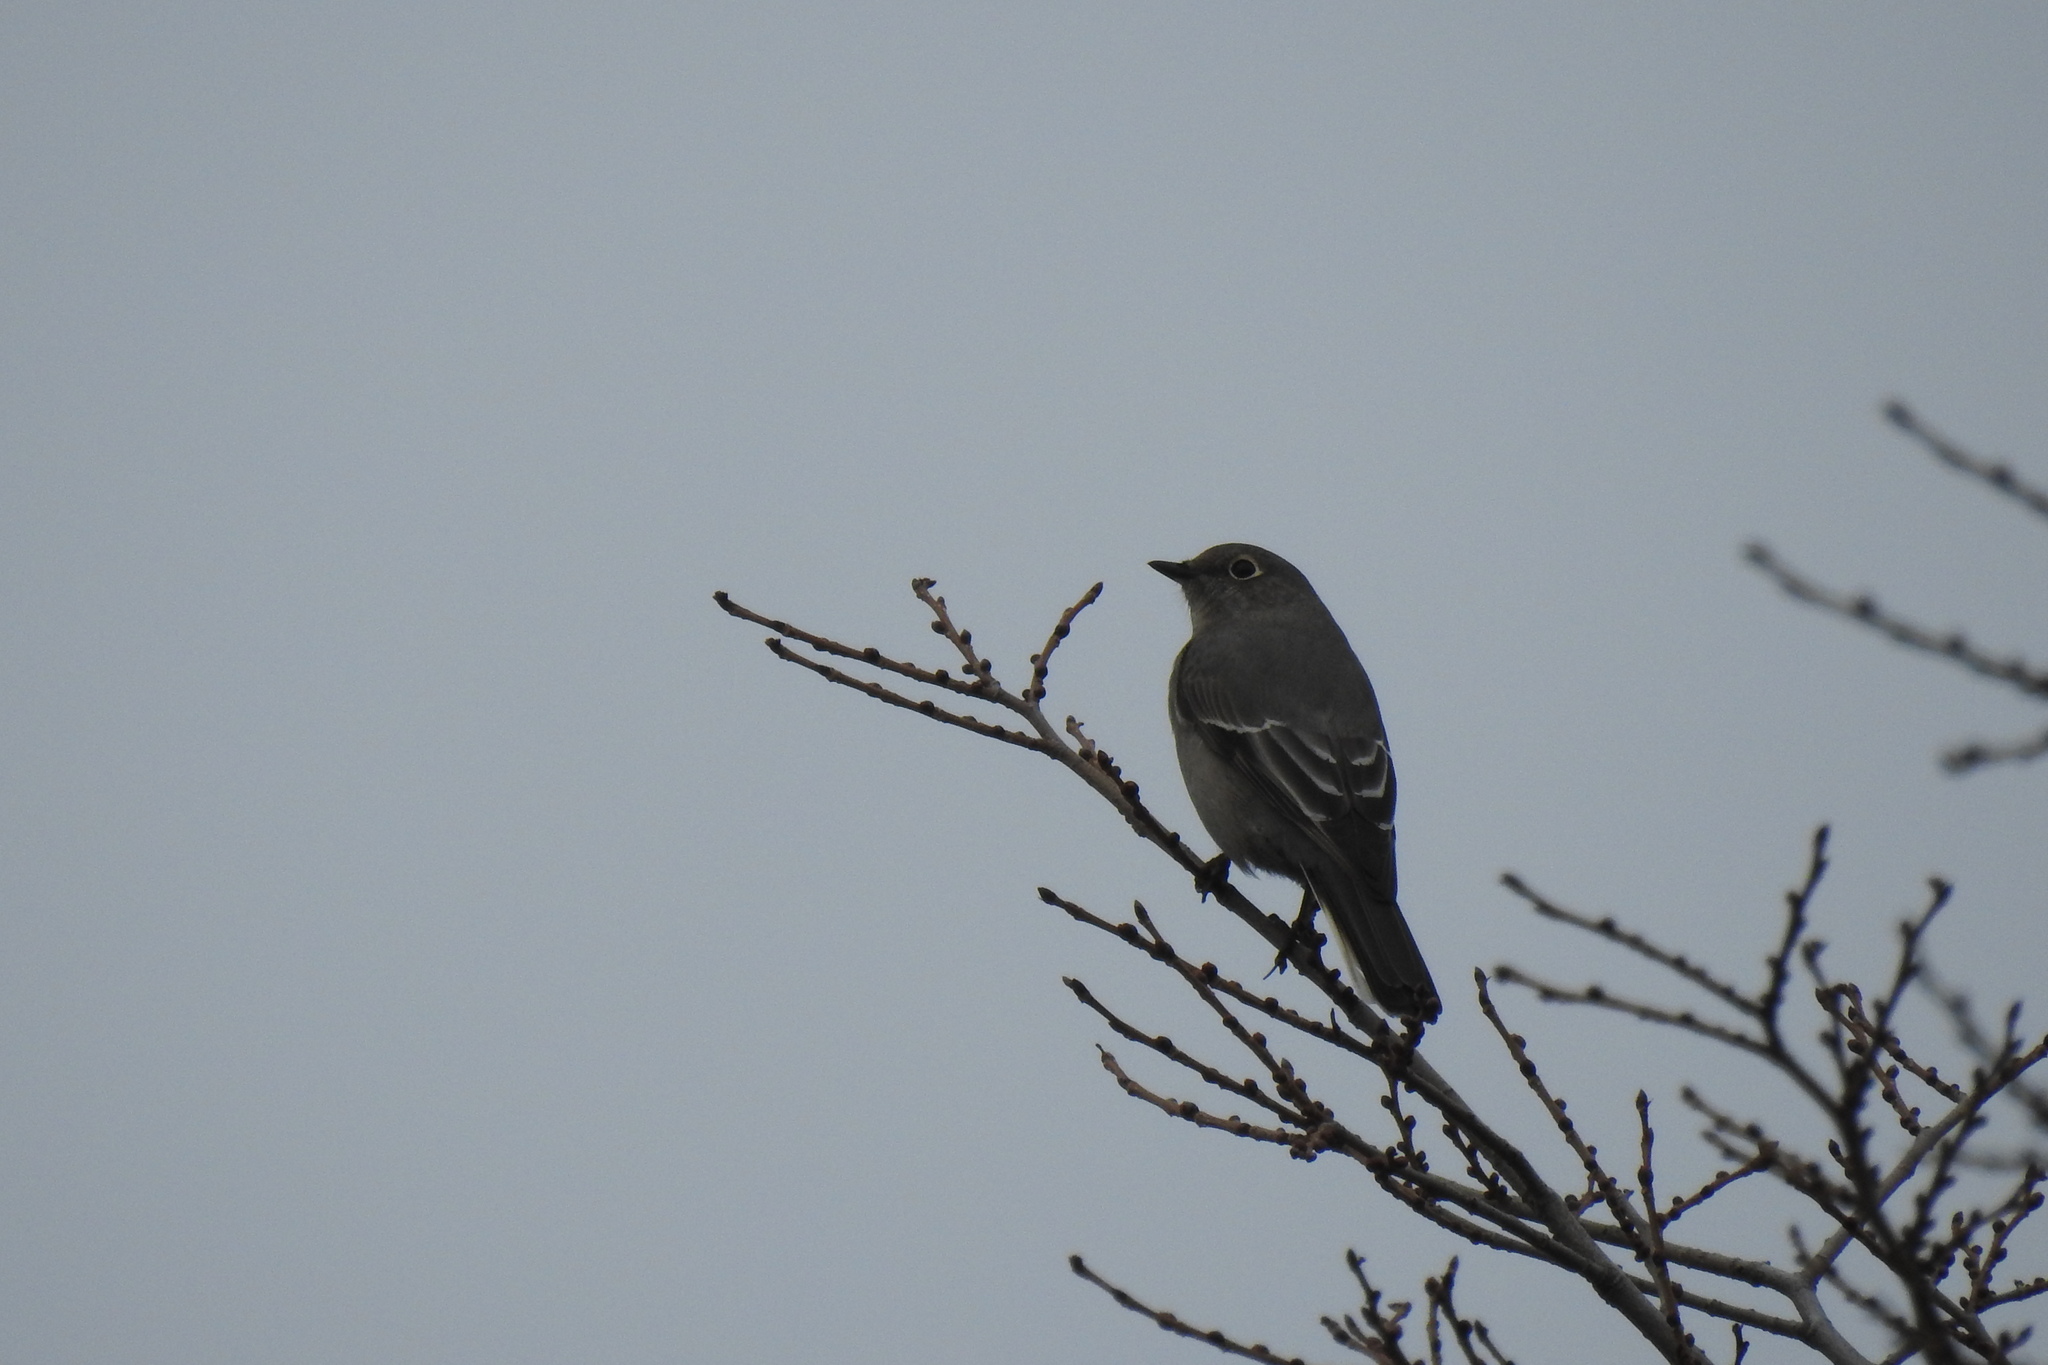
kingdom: Animalia
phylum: Chordata
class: Aves
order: Passeriformes
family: Turdidae
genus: Myadestes
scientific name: Myadestes townsendi
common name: Townsend's solitaire
